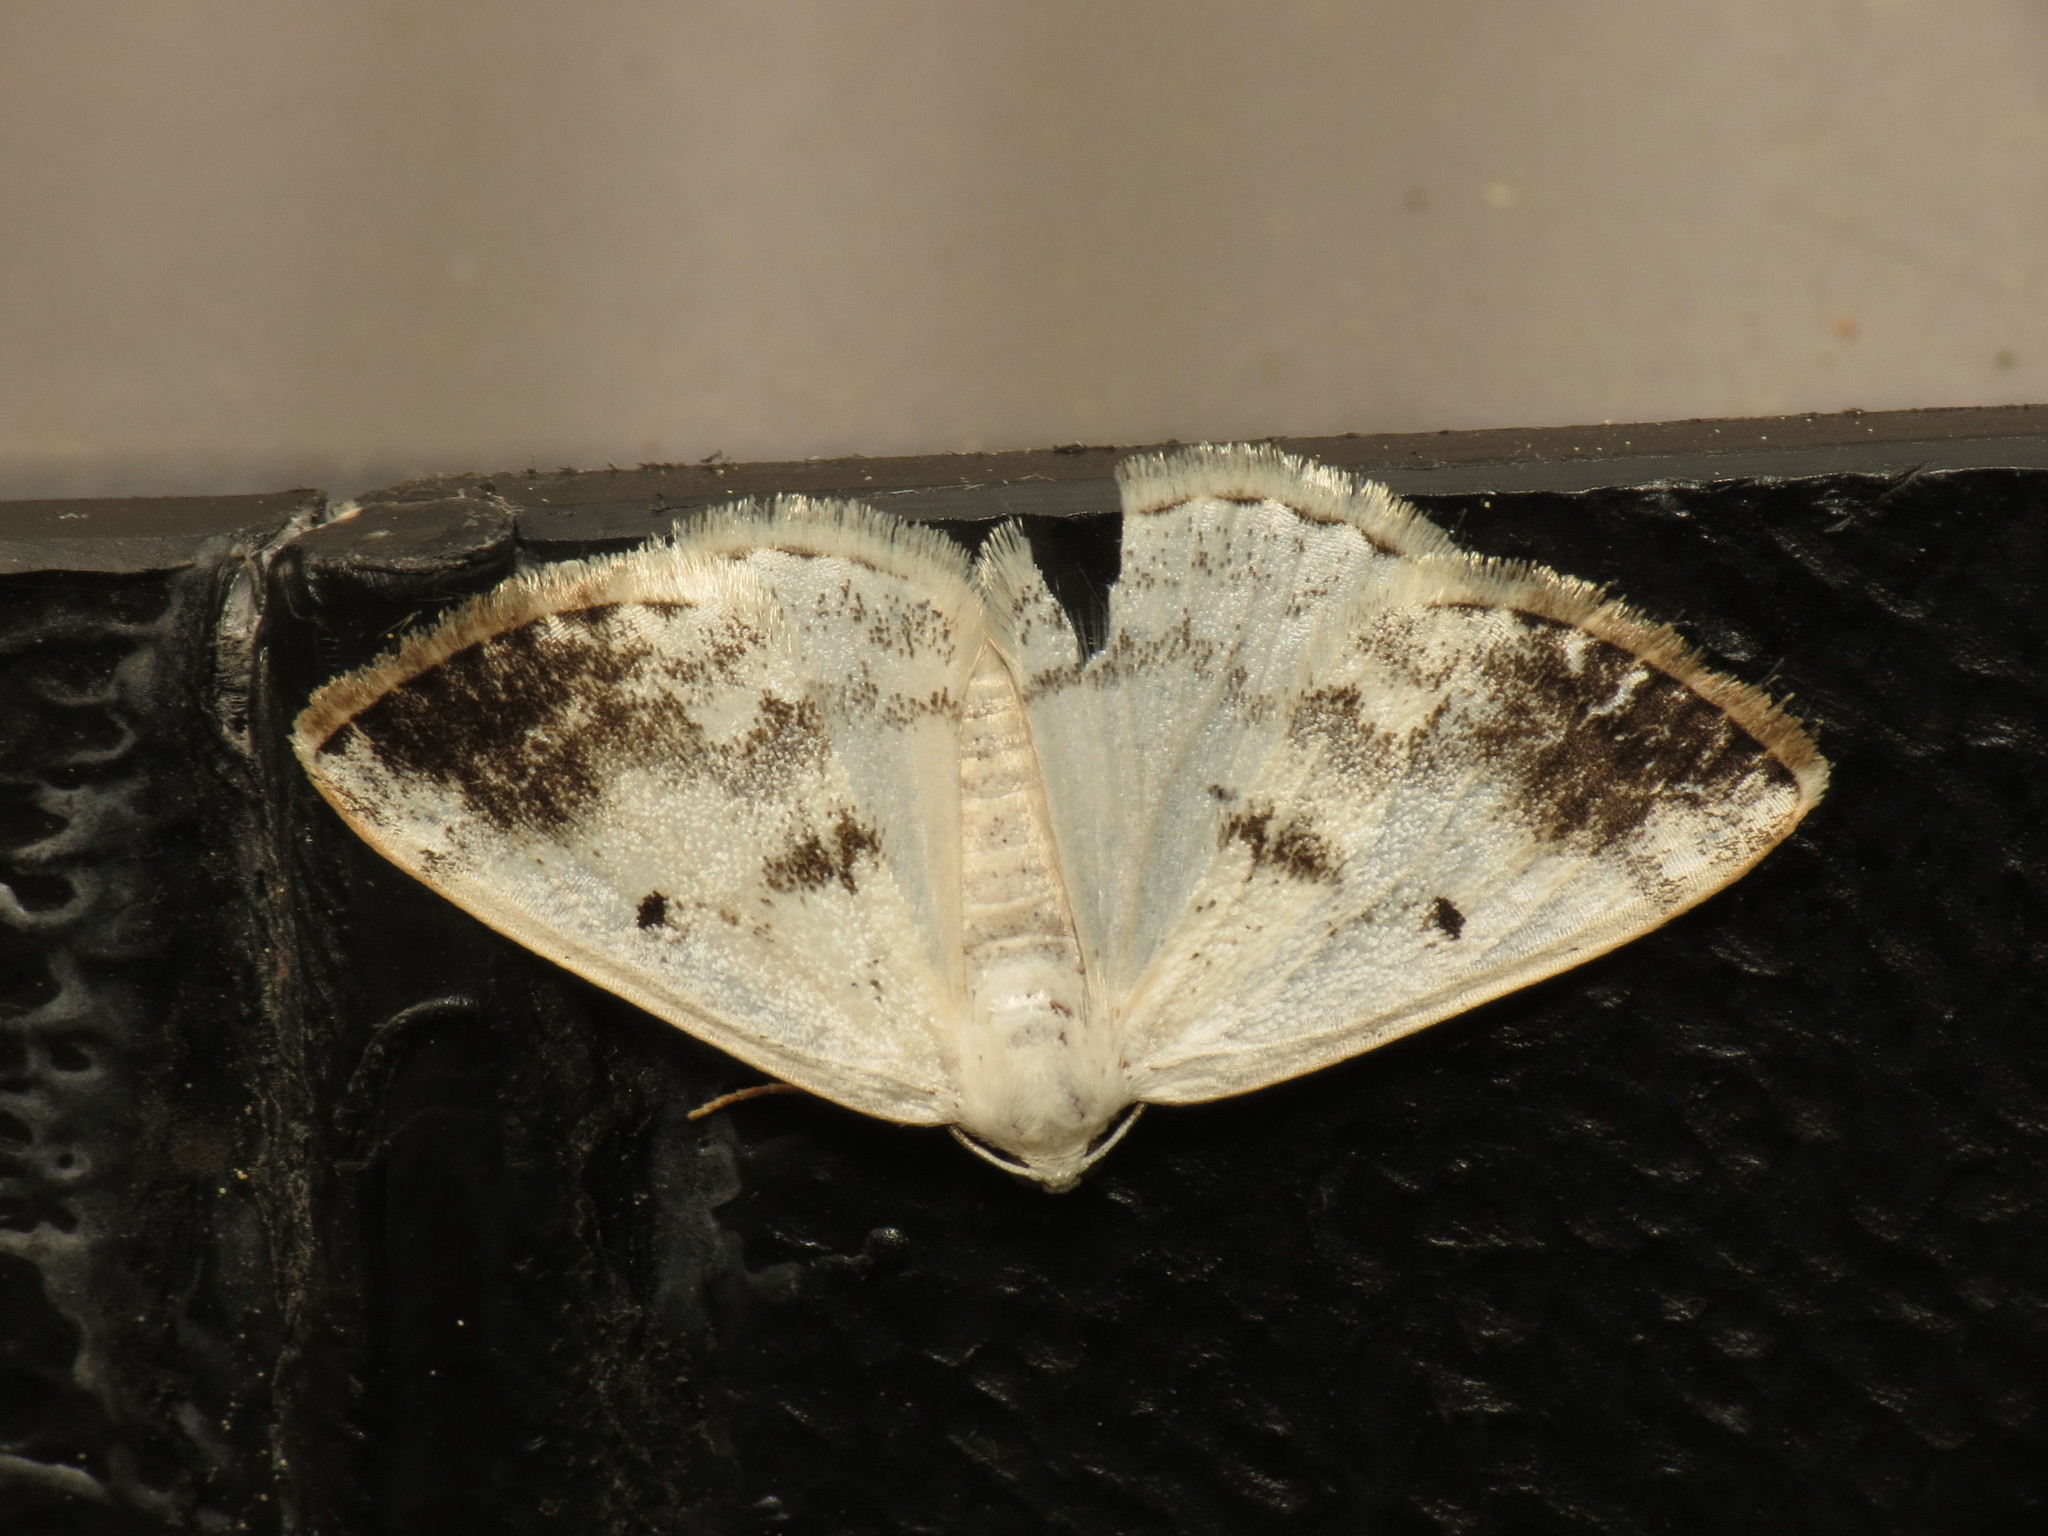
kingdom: Animalia
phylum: Arthropoda
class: Insecta
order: Lepidoptera
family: Geometridae
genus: Lomographa
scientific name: Lomographa temerata
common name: Clouded silver
